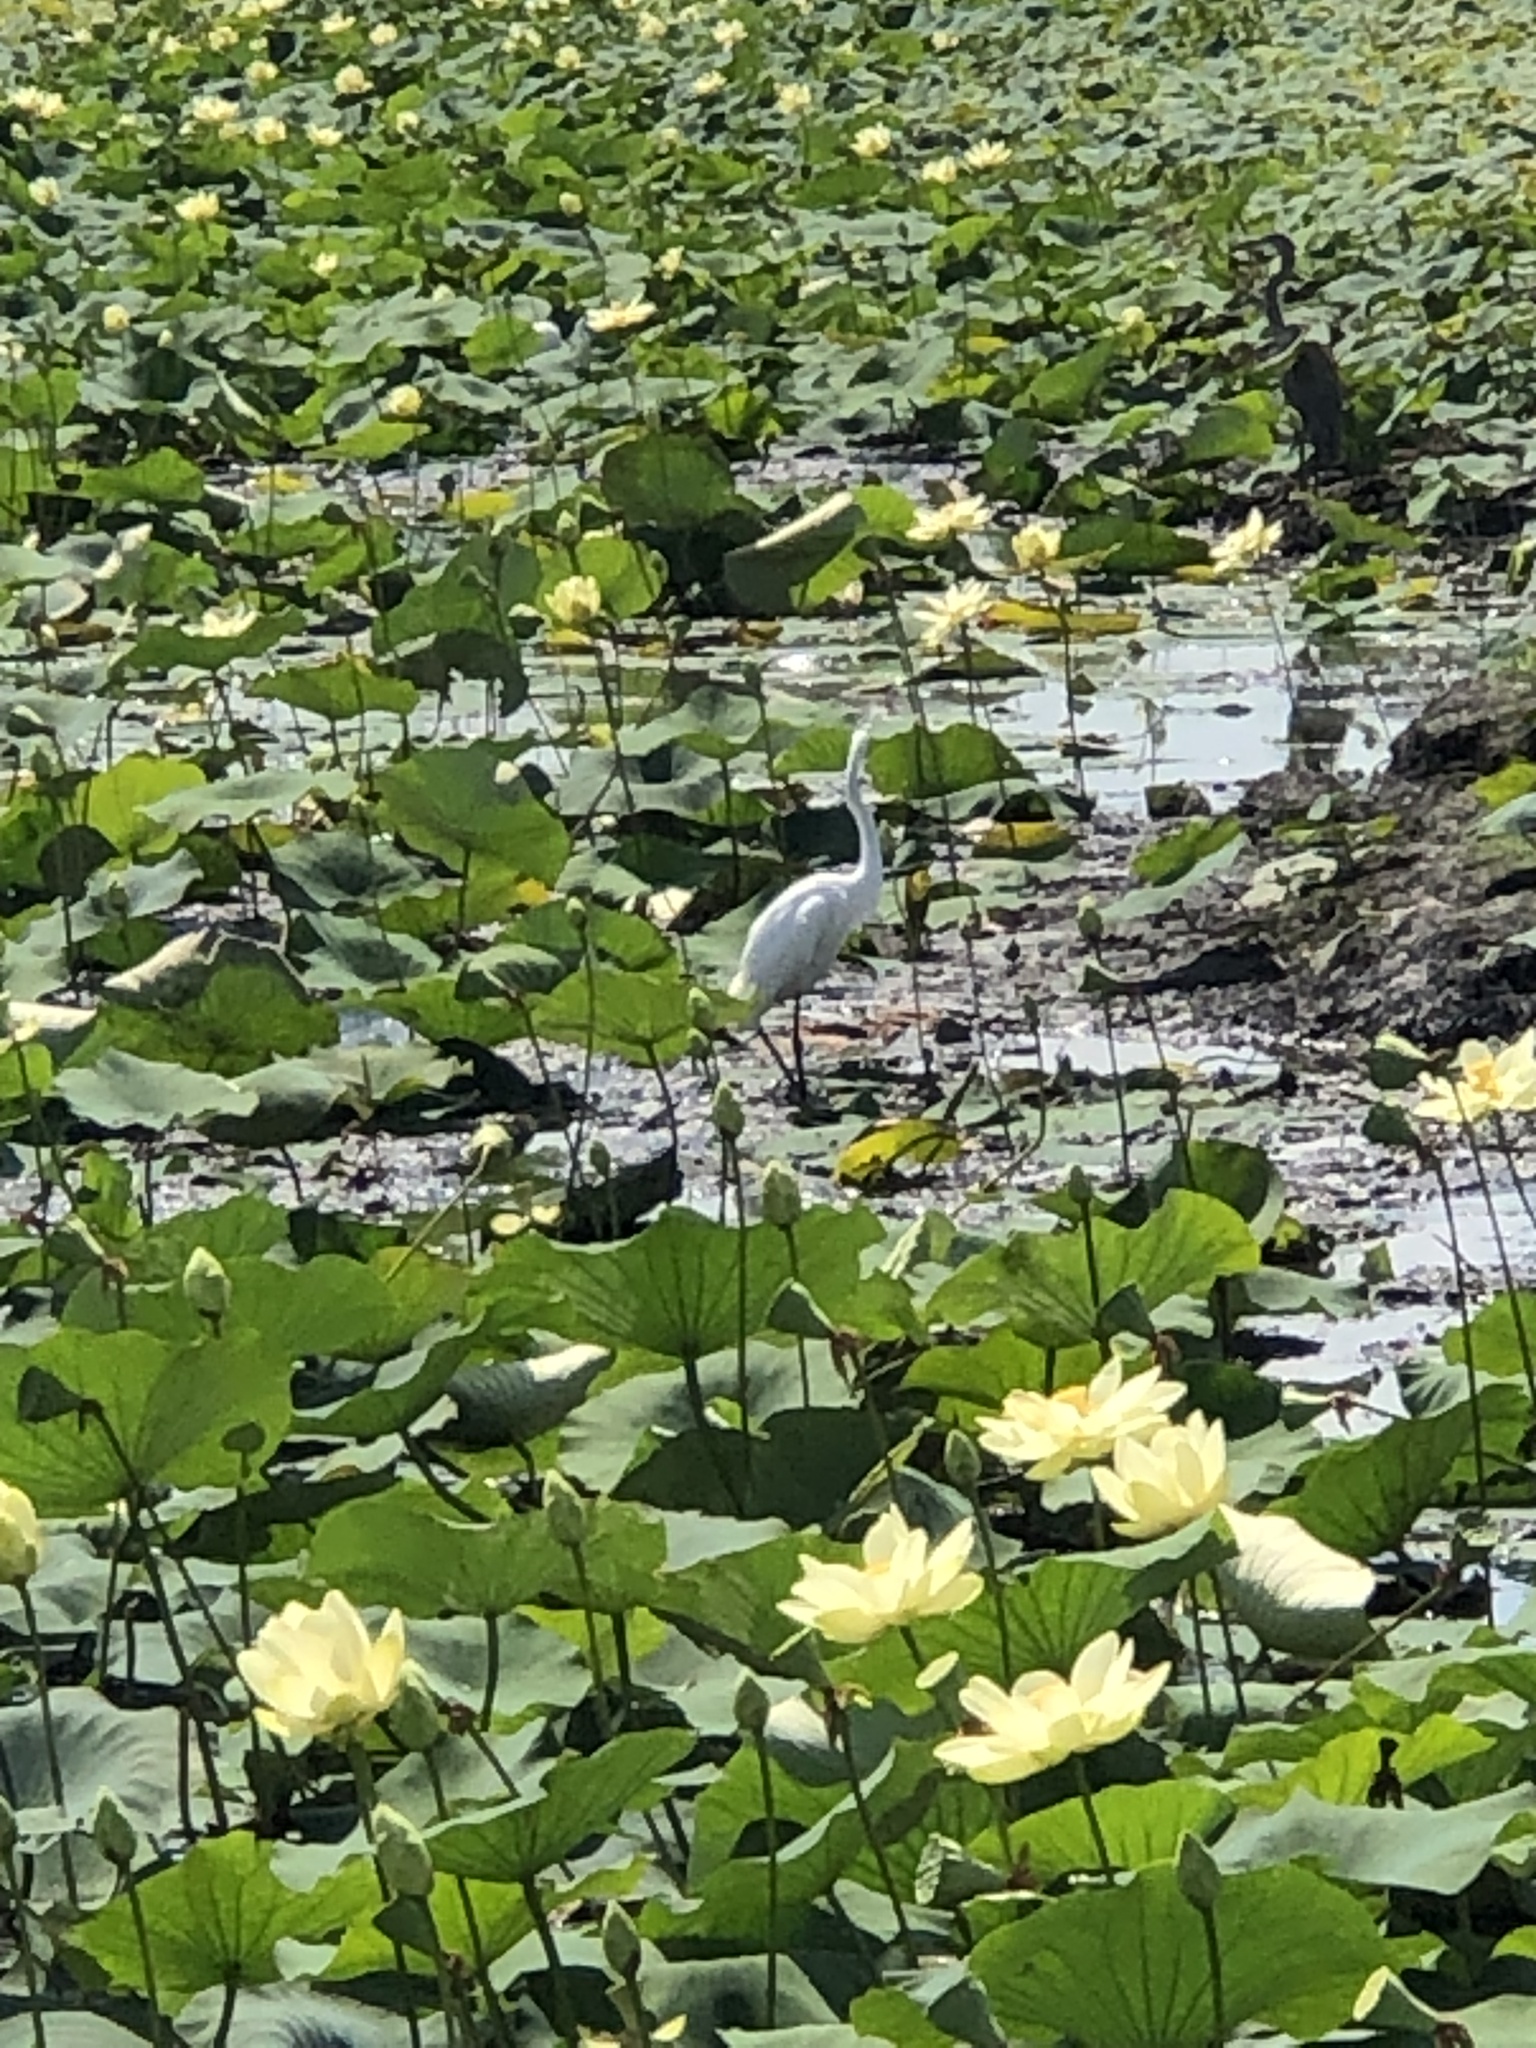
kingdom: Animalia
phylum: Chordata
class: Aves
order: Pelecaniformes
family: Ardeidae
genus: Ardea
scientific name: Ardea alba
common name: Great egret
